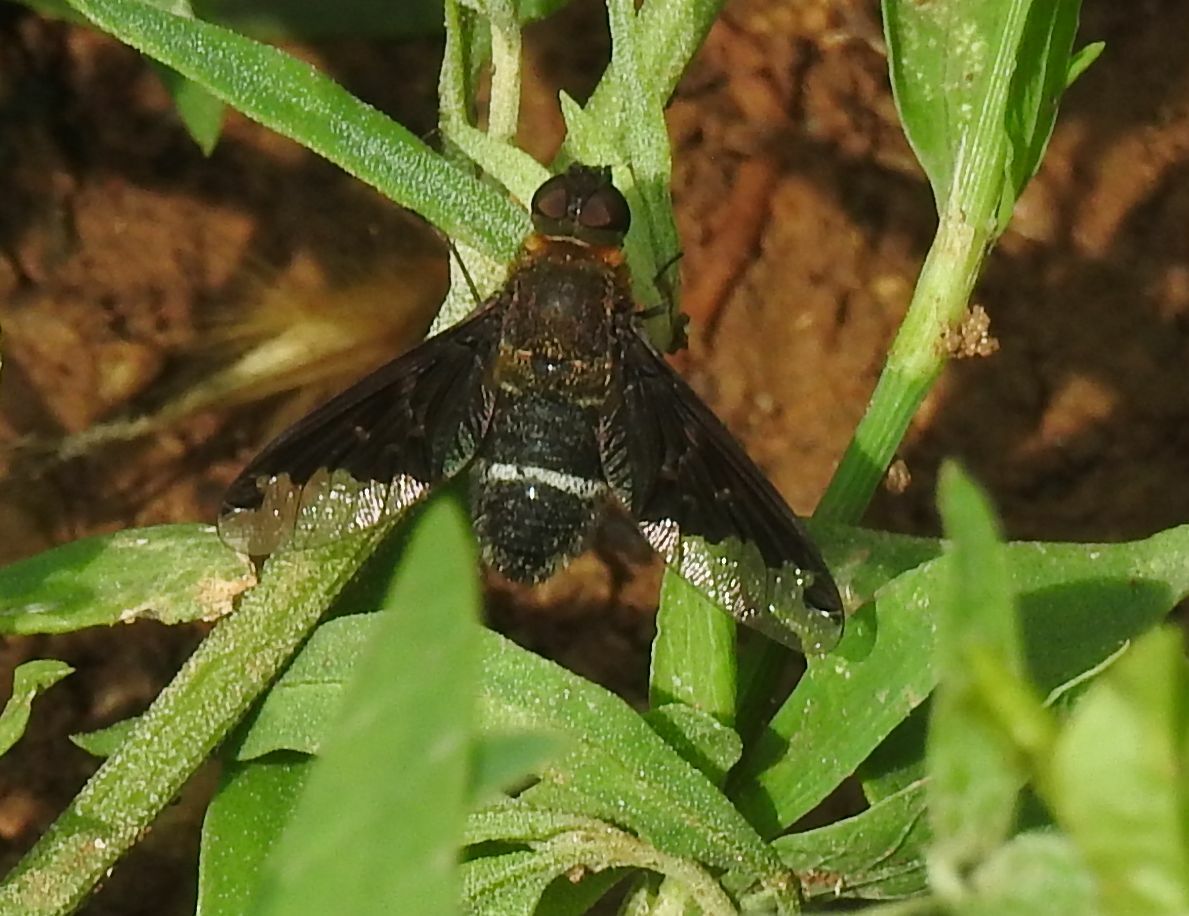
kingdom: Animalia
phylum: Arthropoda
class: Insecta
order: Diptera
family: Bombyliidae
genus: Hemipenthes
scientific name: Hemipenthes velutina
